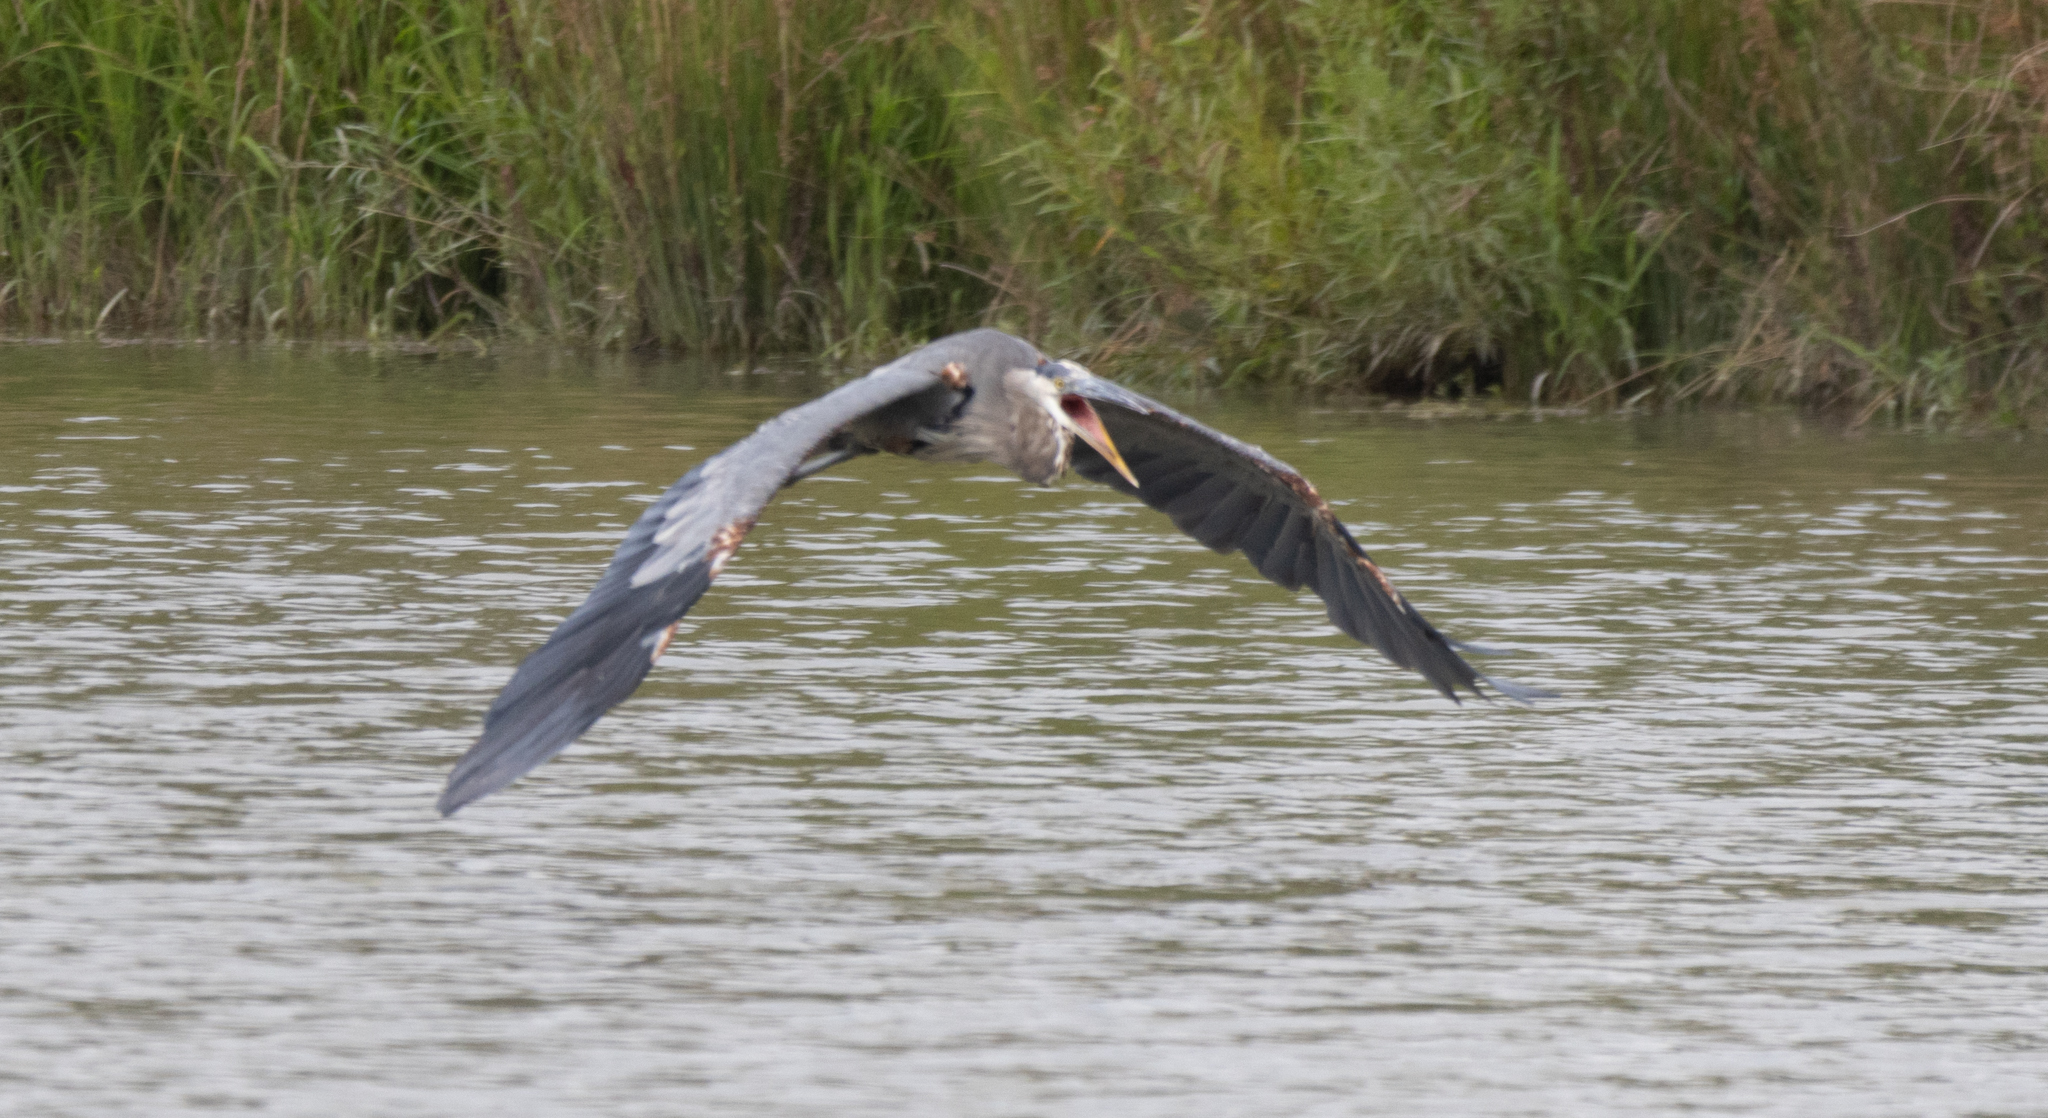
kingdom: Animalia
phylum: Chordata
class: Aves
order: Pelecaniformes
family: Ardeidae
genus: Ardea
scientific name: Ardea herodias
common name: Great blue heron
